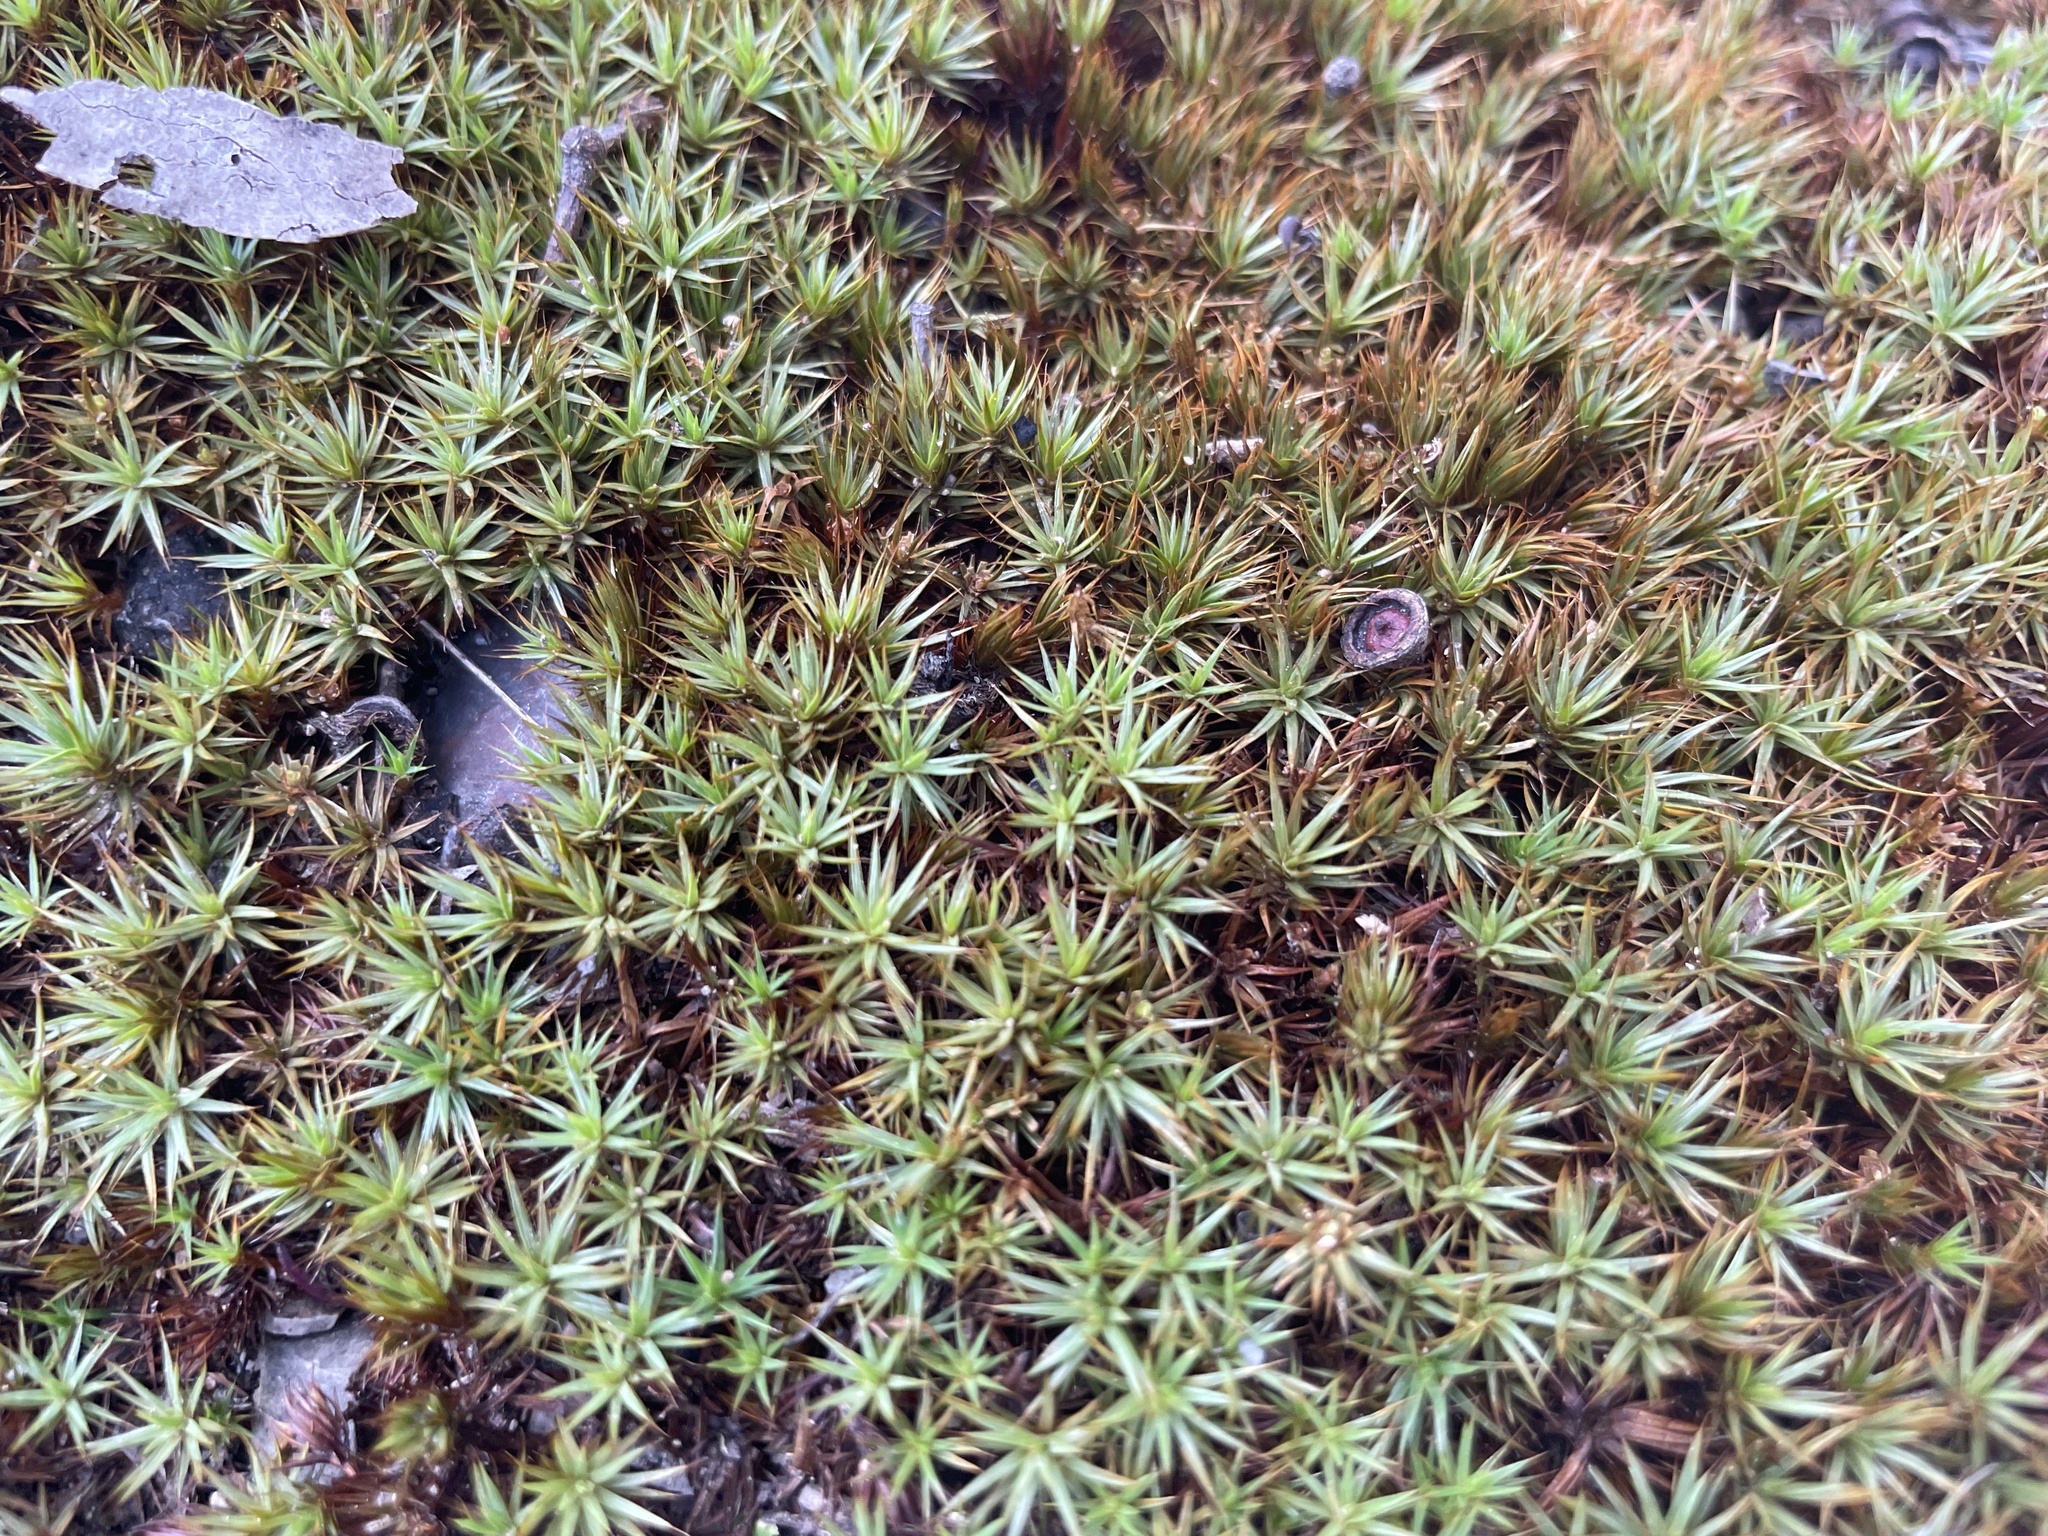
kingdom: Plantae
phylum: Bryophyta
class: Polytrichopsida
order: Polytrichales
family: Polytrichaceae
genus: Polytrichum
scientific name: Polytrichum juniperinum
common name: Juniper haircap moss
